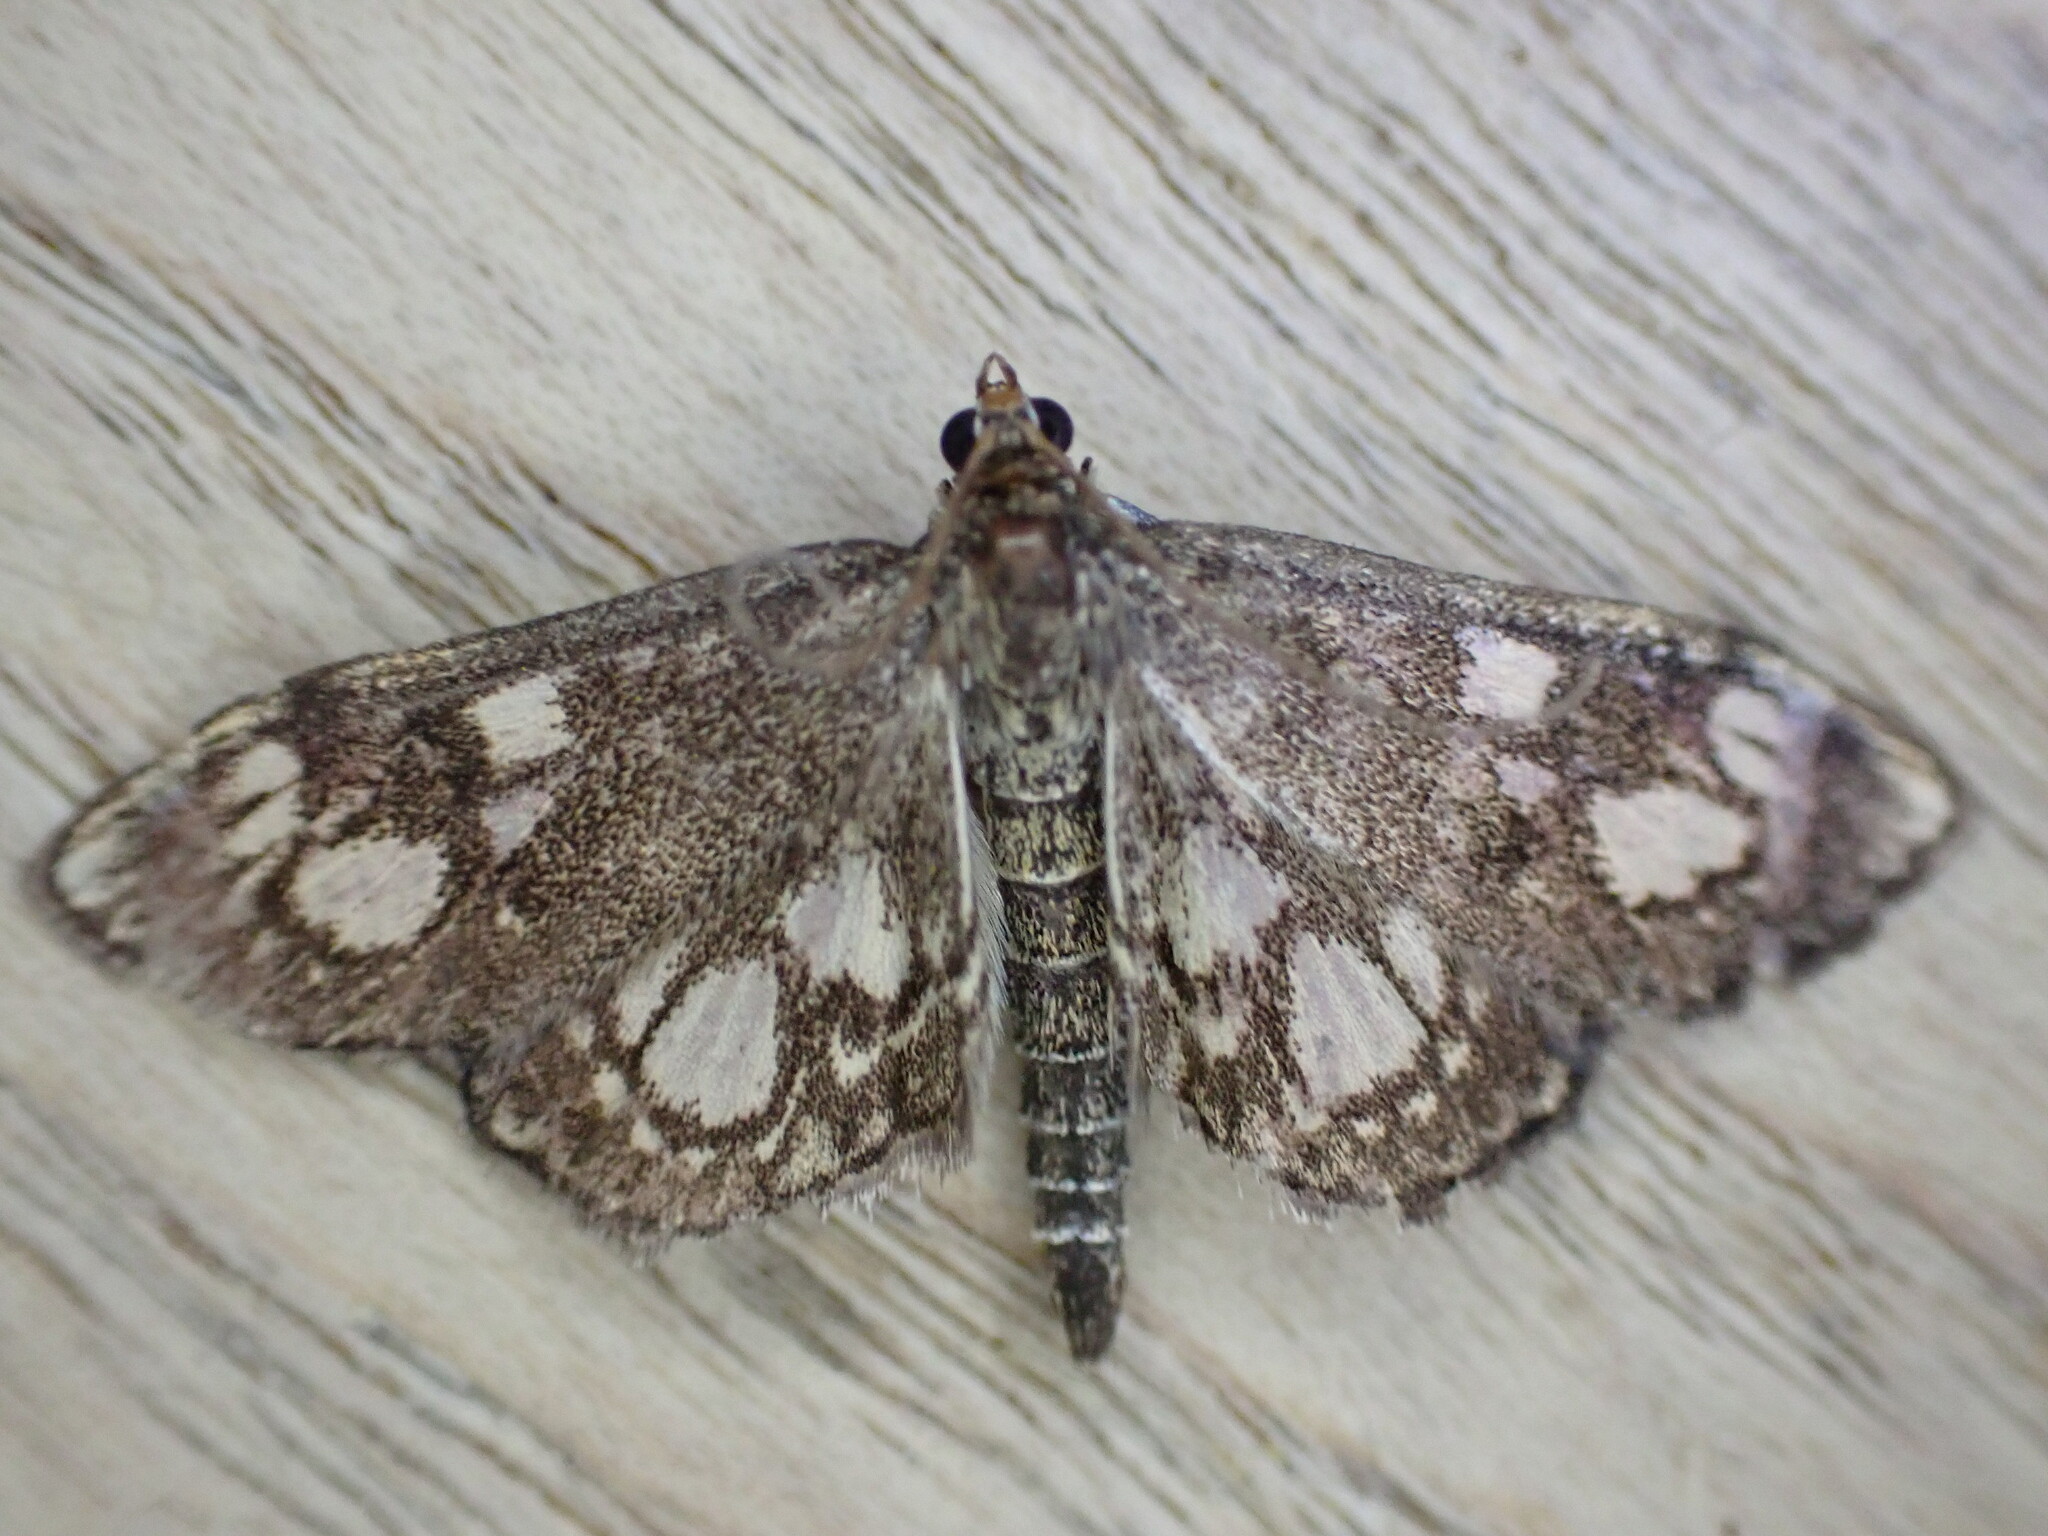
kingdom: Animalia
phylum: Arthropoda
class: Insecta
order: Lepidoptera
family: Crambidae
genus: Anania
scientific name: Anania coronata
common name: Elder pearl
